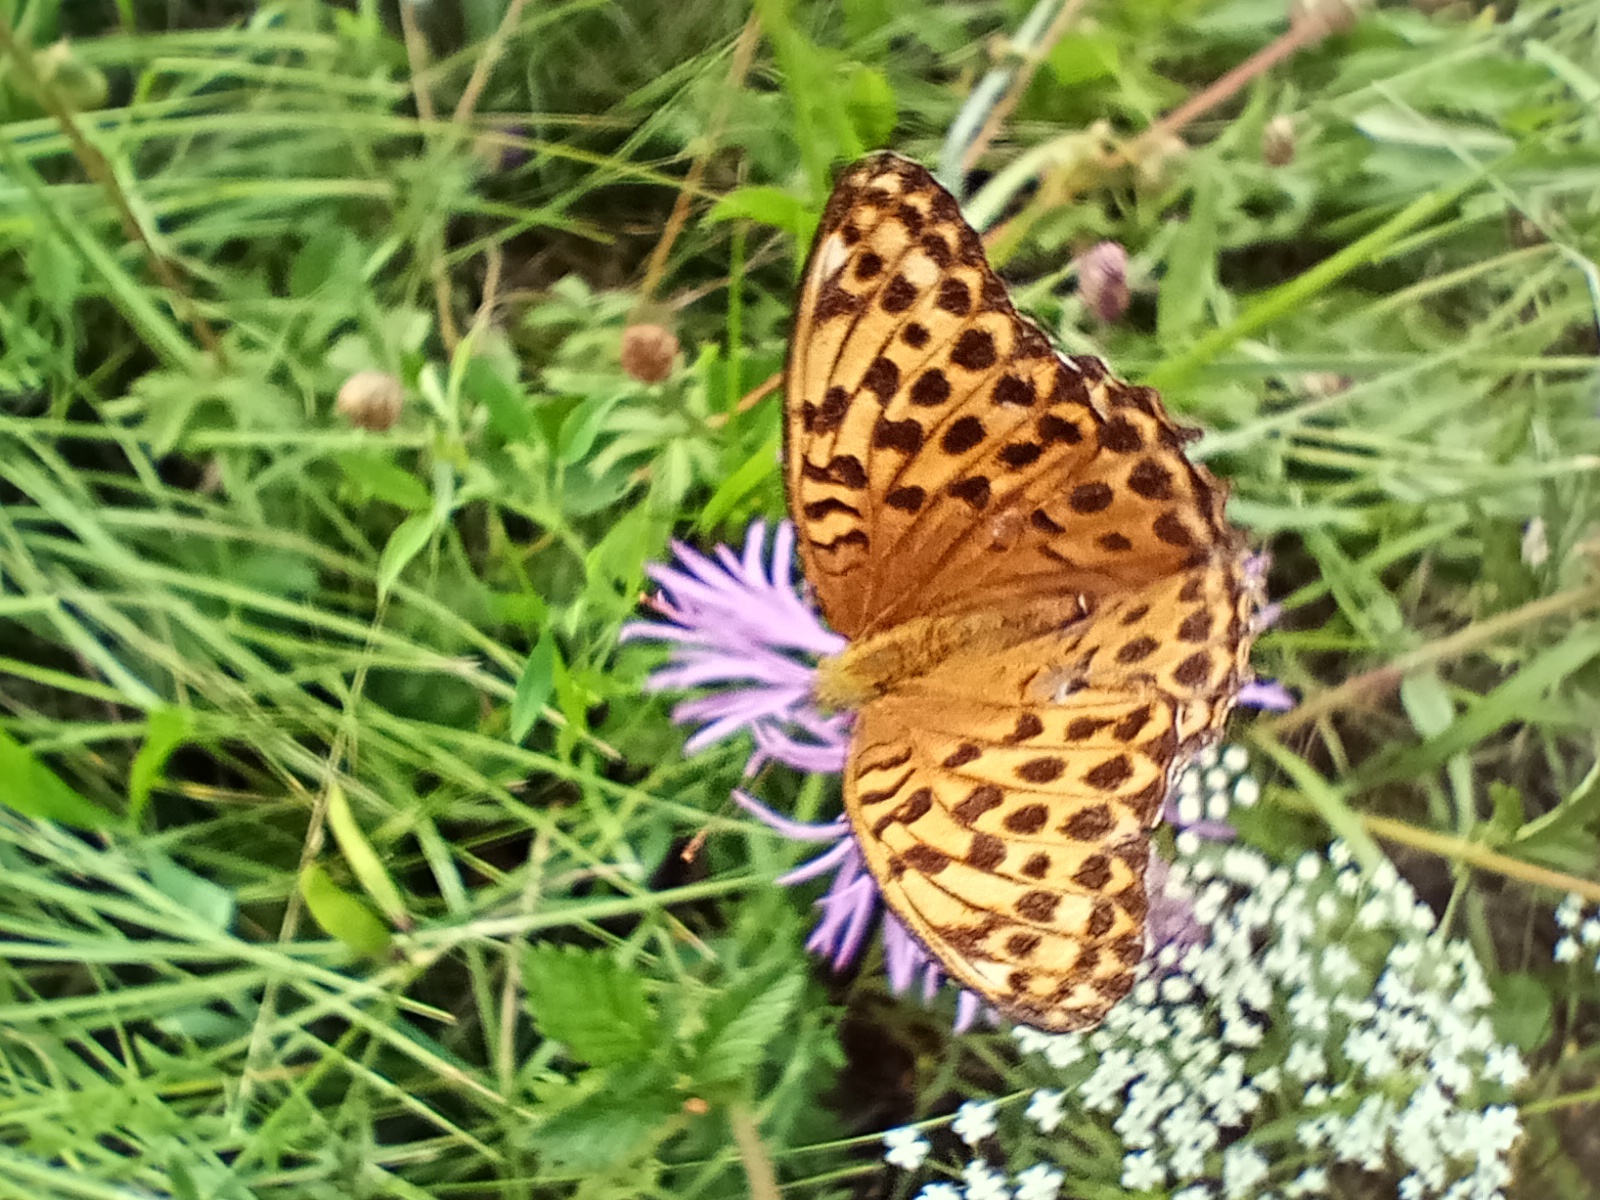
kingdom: Animalia
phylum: Arthropoda
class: Insecta
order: Lepidoptera
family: Nymphalidae
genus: Argynnis
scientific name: Argynnis paphia
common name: Silver-washed fritillary
